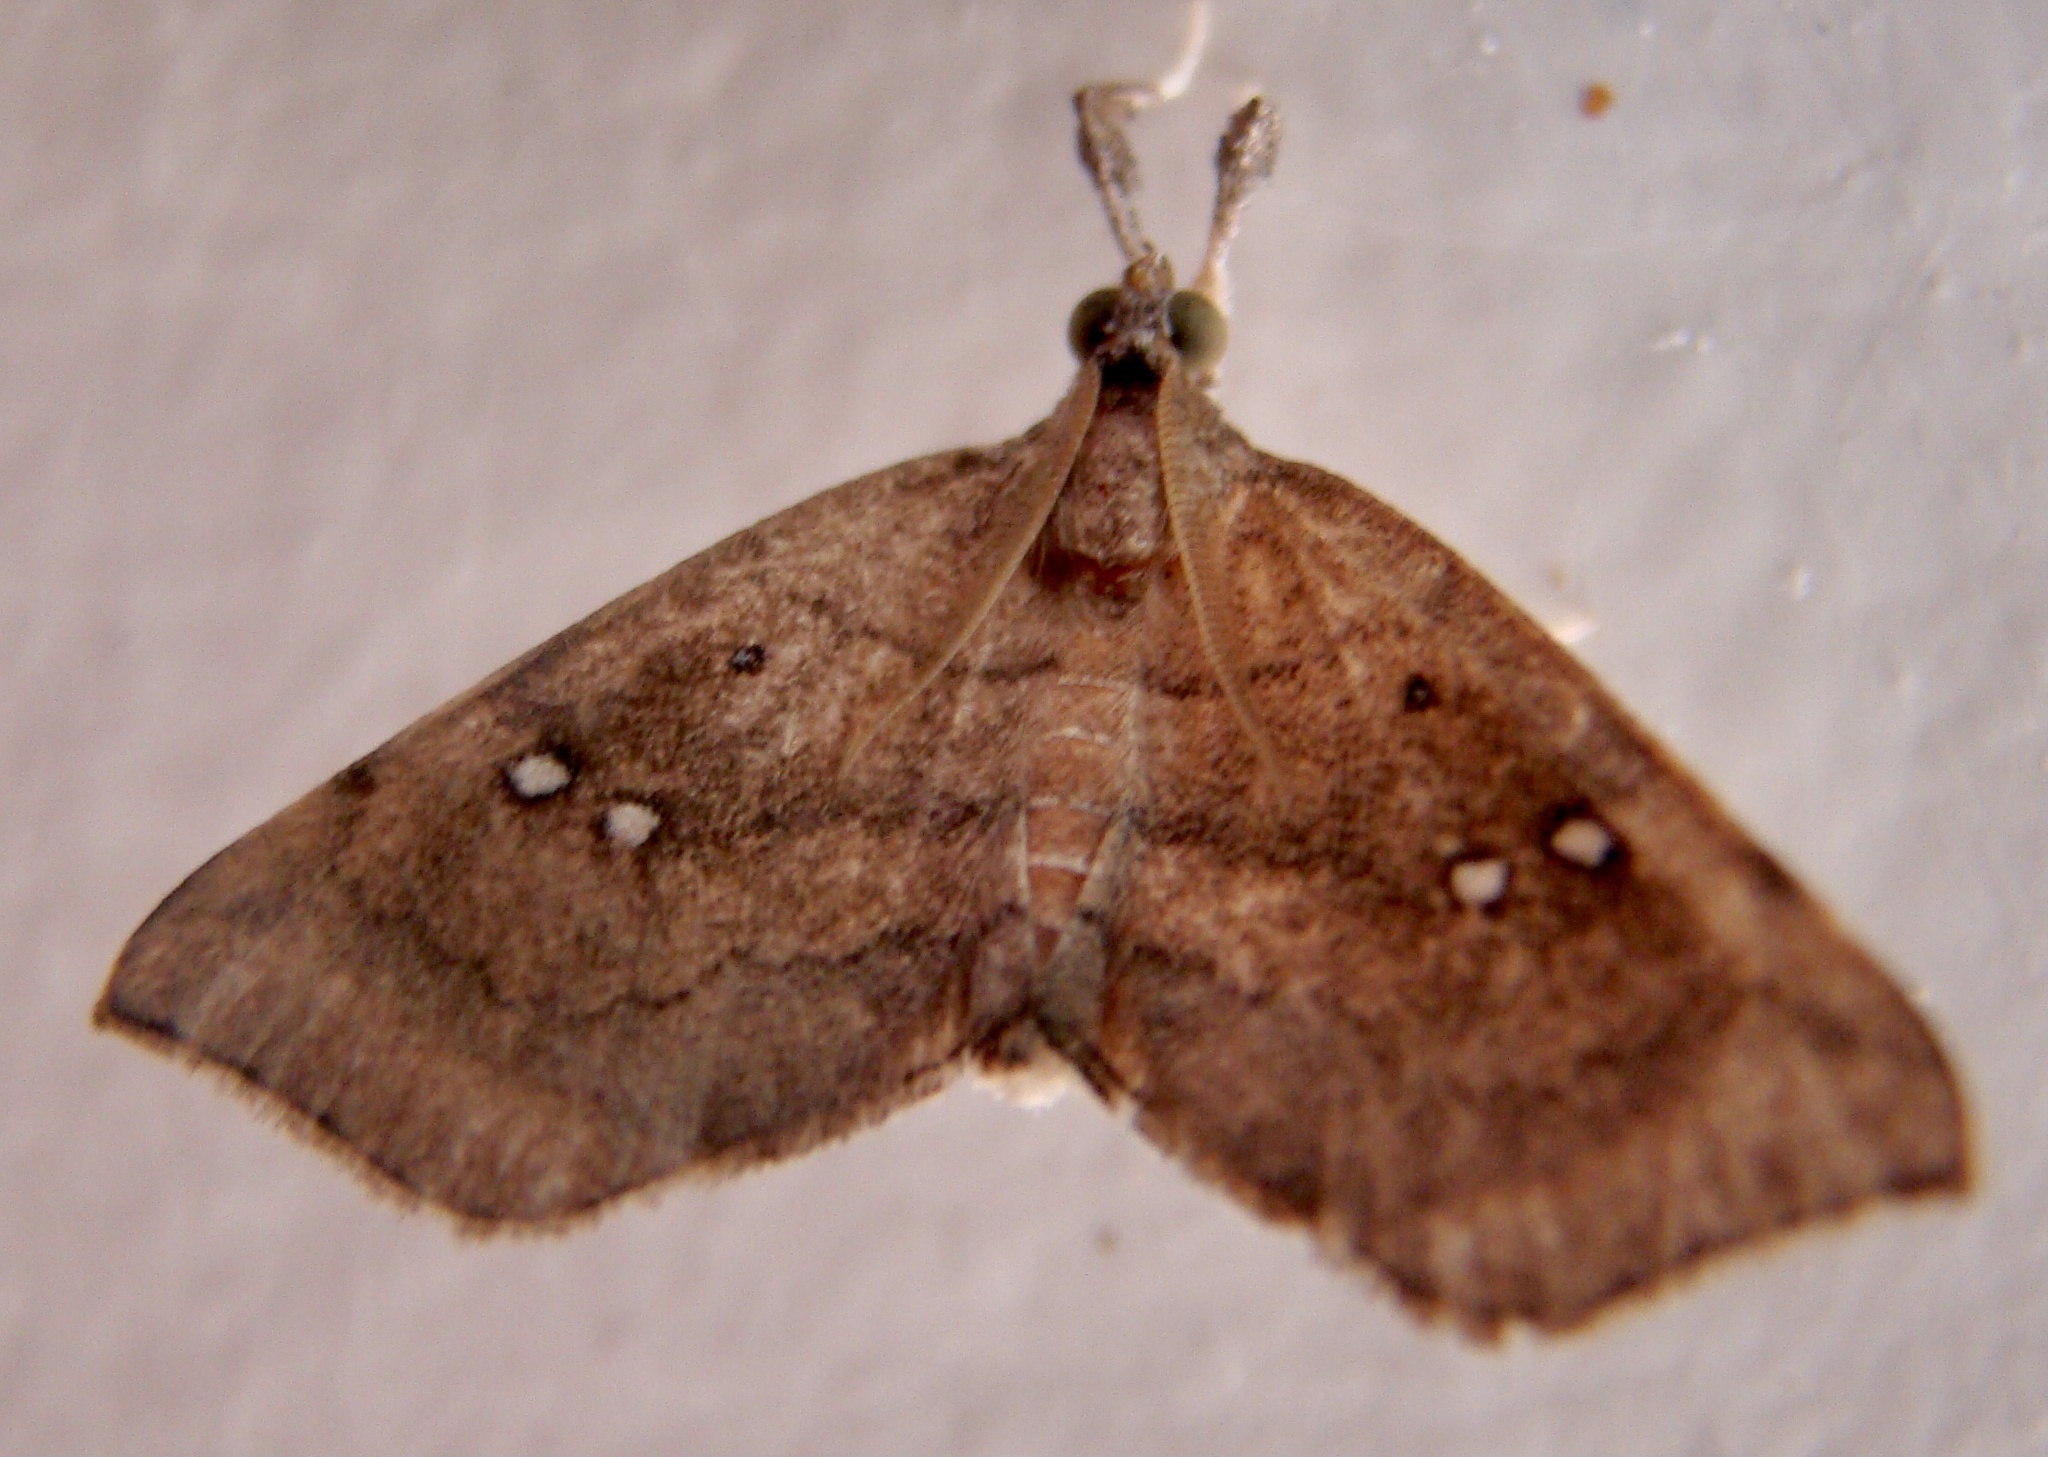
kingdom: Animalia
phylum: Arthropoda
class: Insecta
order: Lepidoptera
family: Erebidae
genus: Disticta
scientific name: Disticta atava
